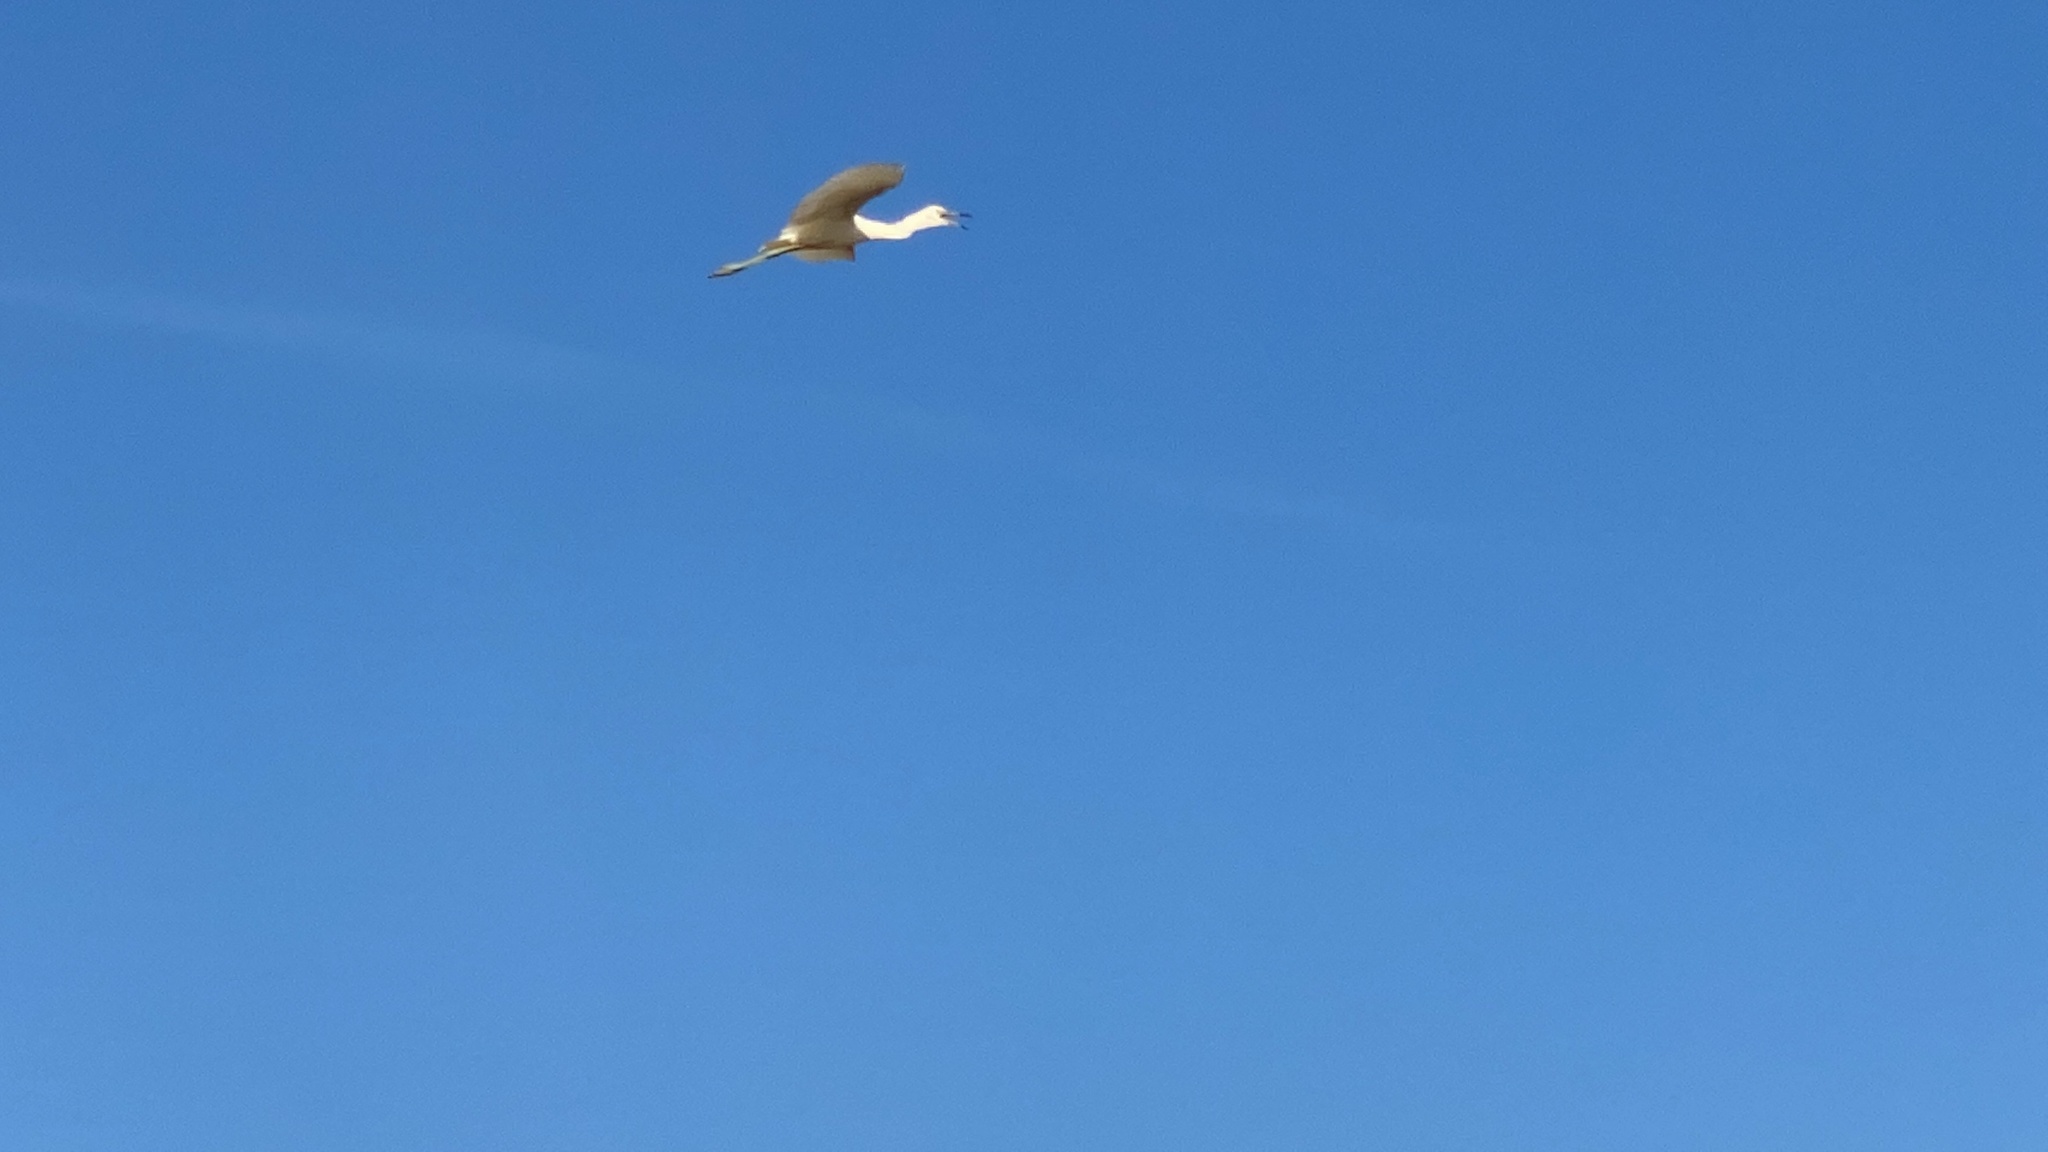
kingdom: Animalia
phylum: Chordata
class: Aves
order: Pelecaniformes
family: Ardeidae
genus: Egretta
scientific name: Egretta caerulea
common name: Little blue heron
